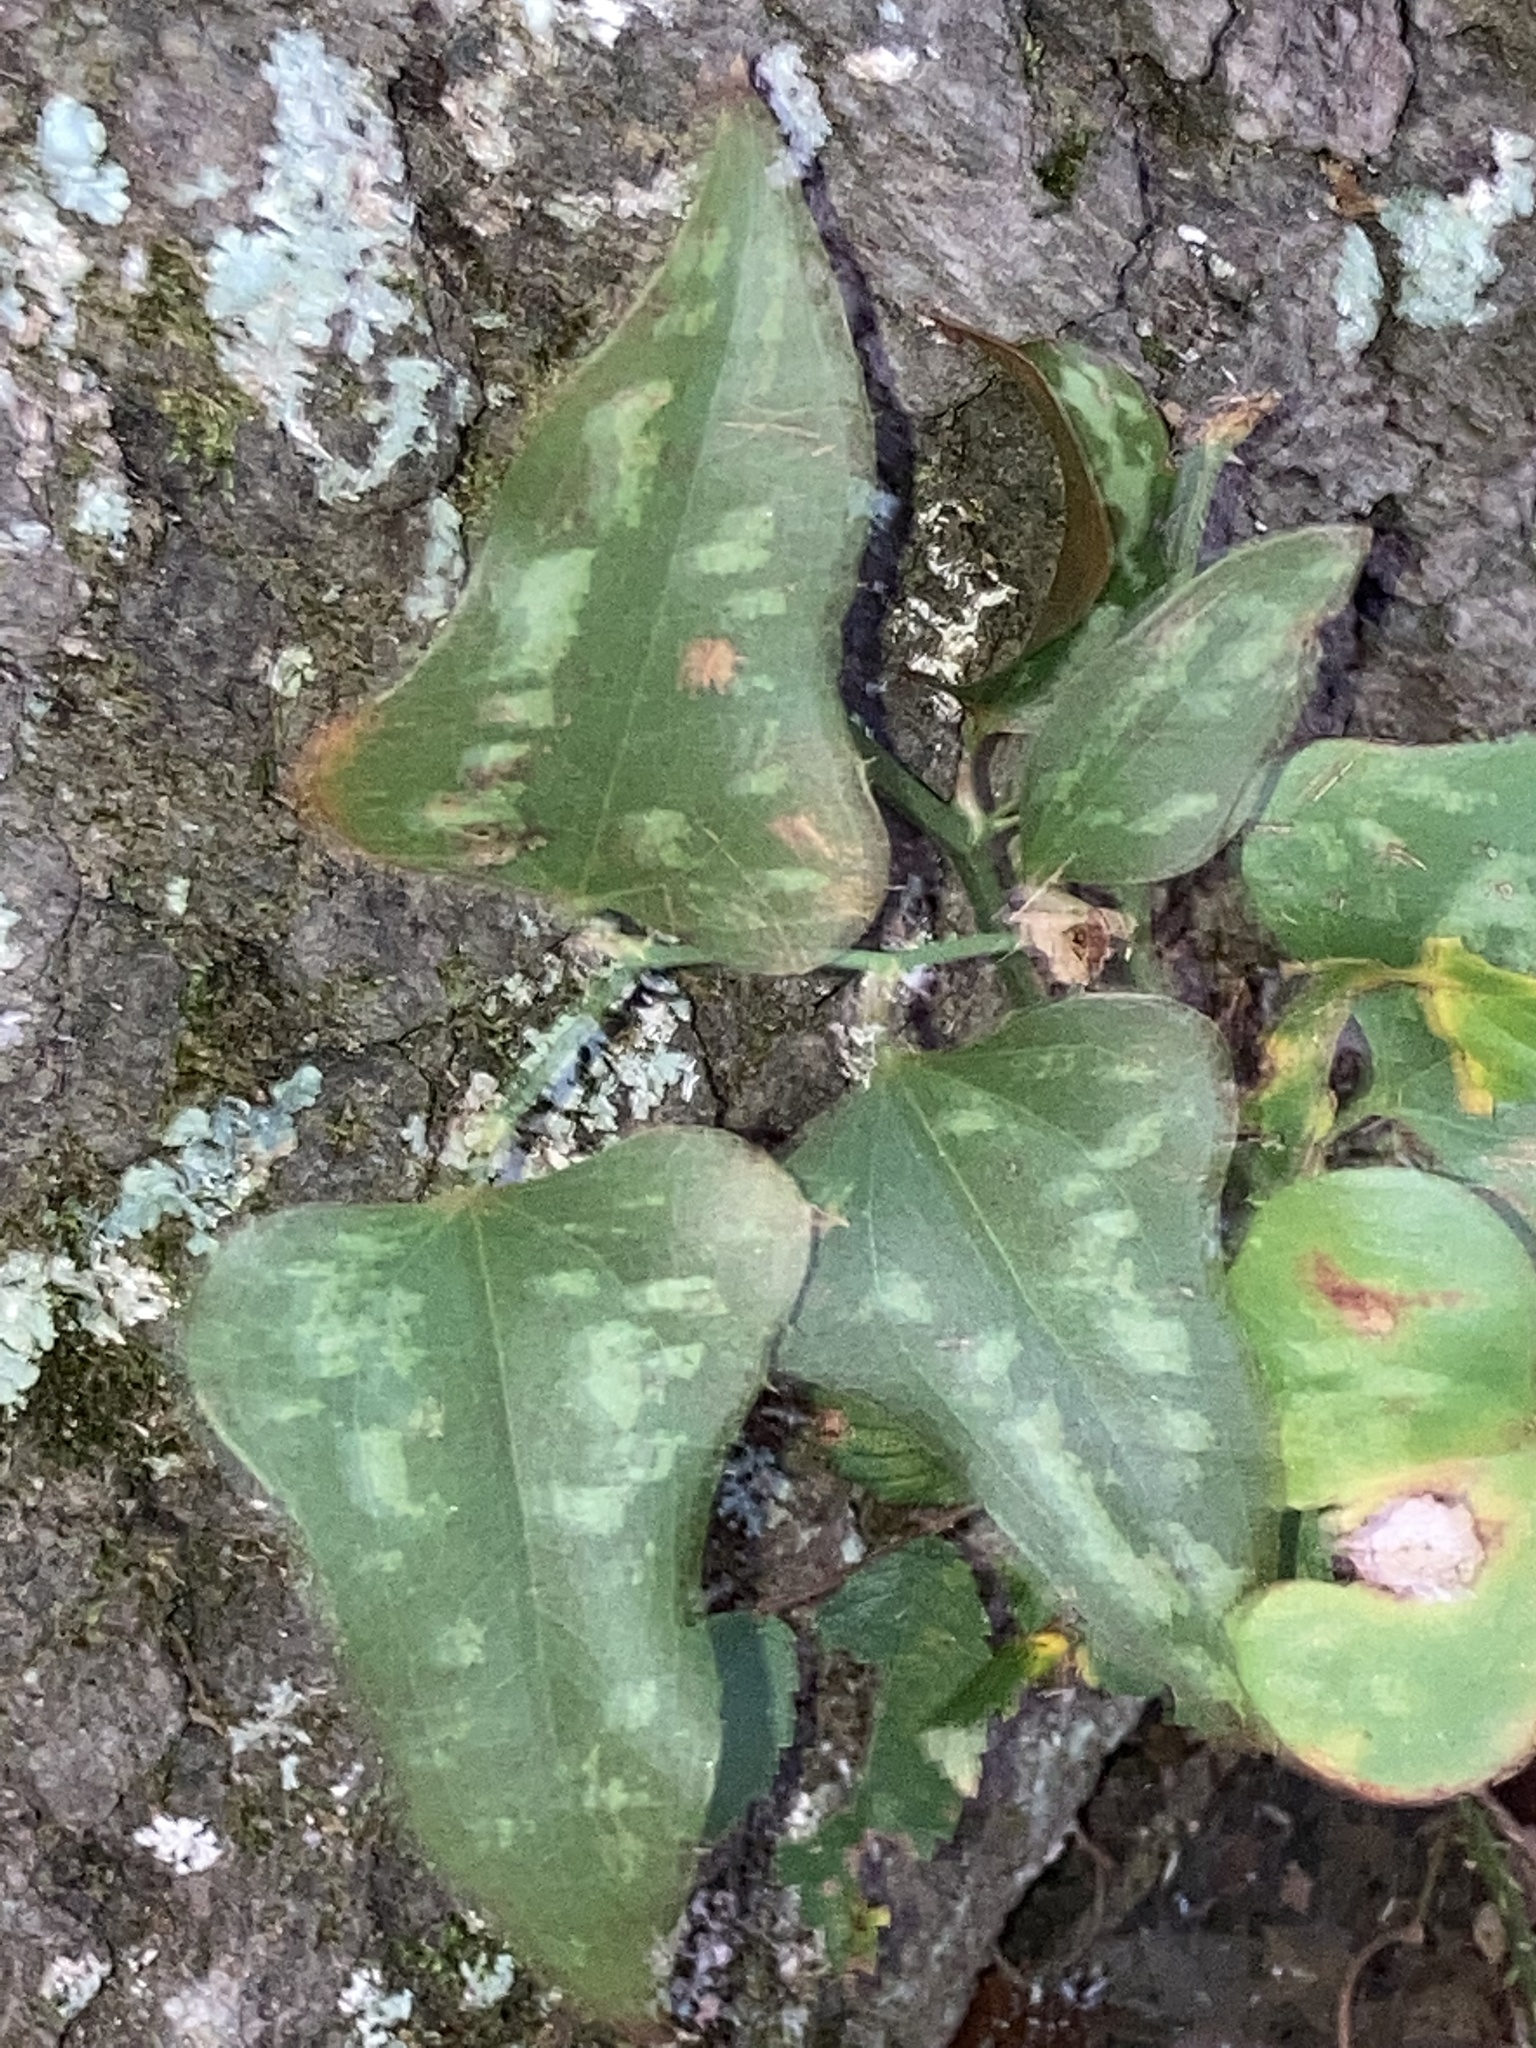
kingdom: Plantae
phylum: Tracheophyta
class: Liliopsida
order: Liliales
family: Smilacaceae
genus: Smilax
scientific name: Smilax bona-nox
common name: Catbrier
